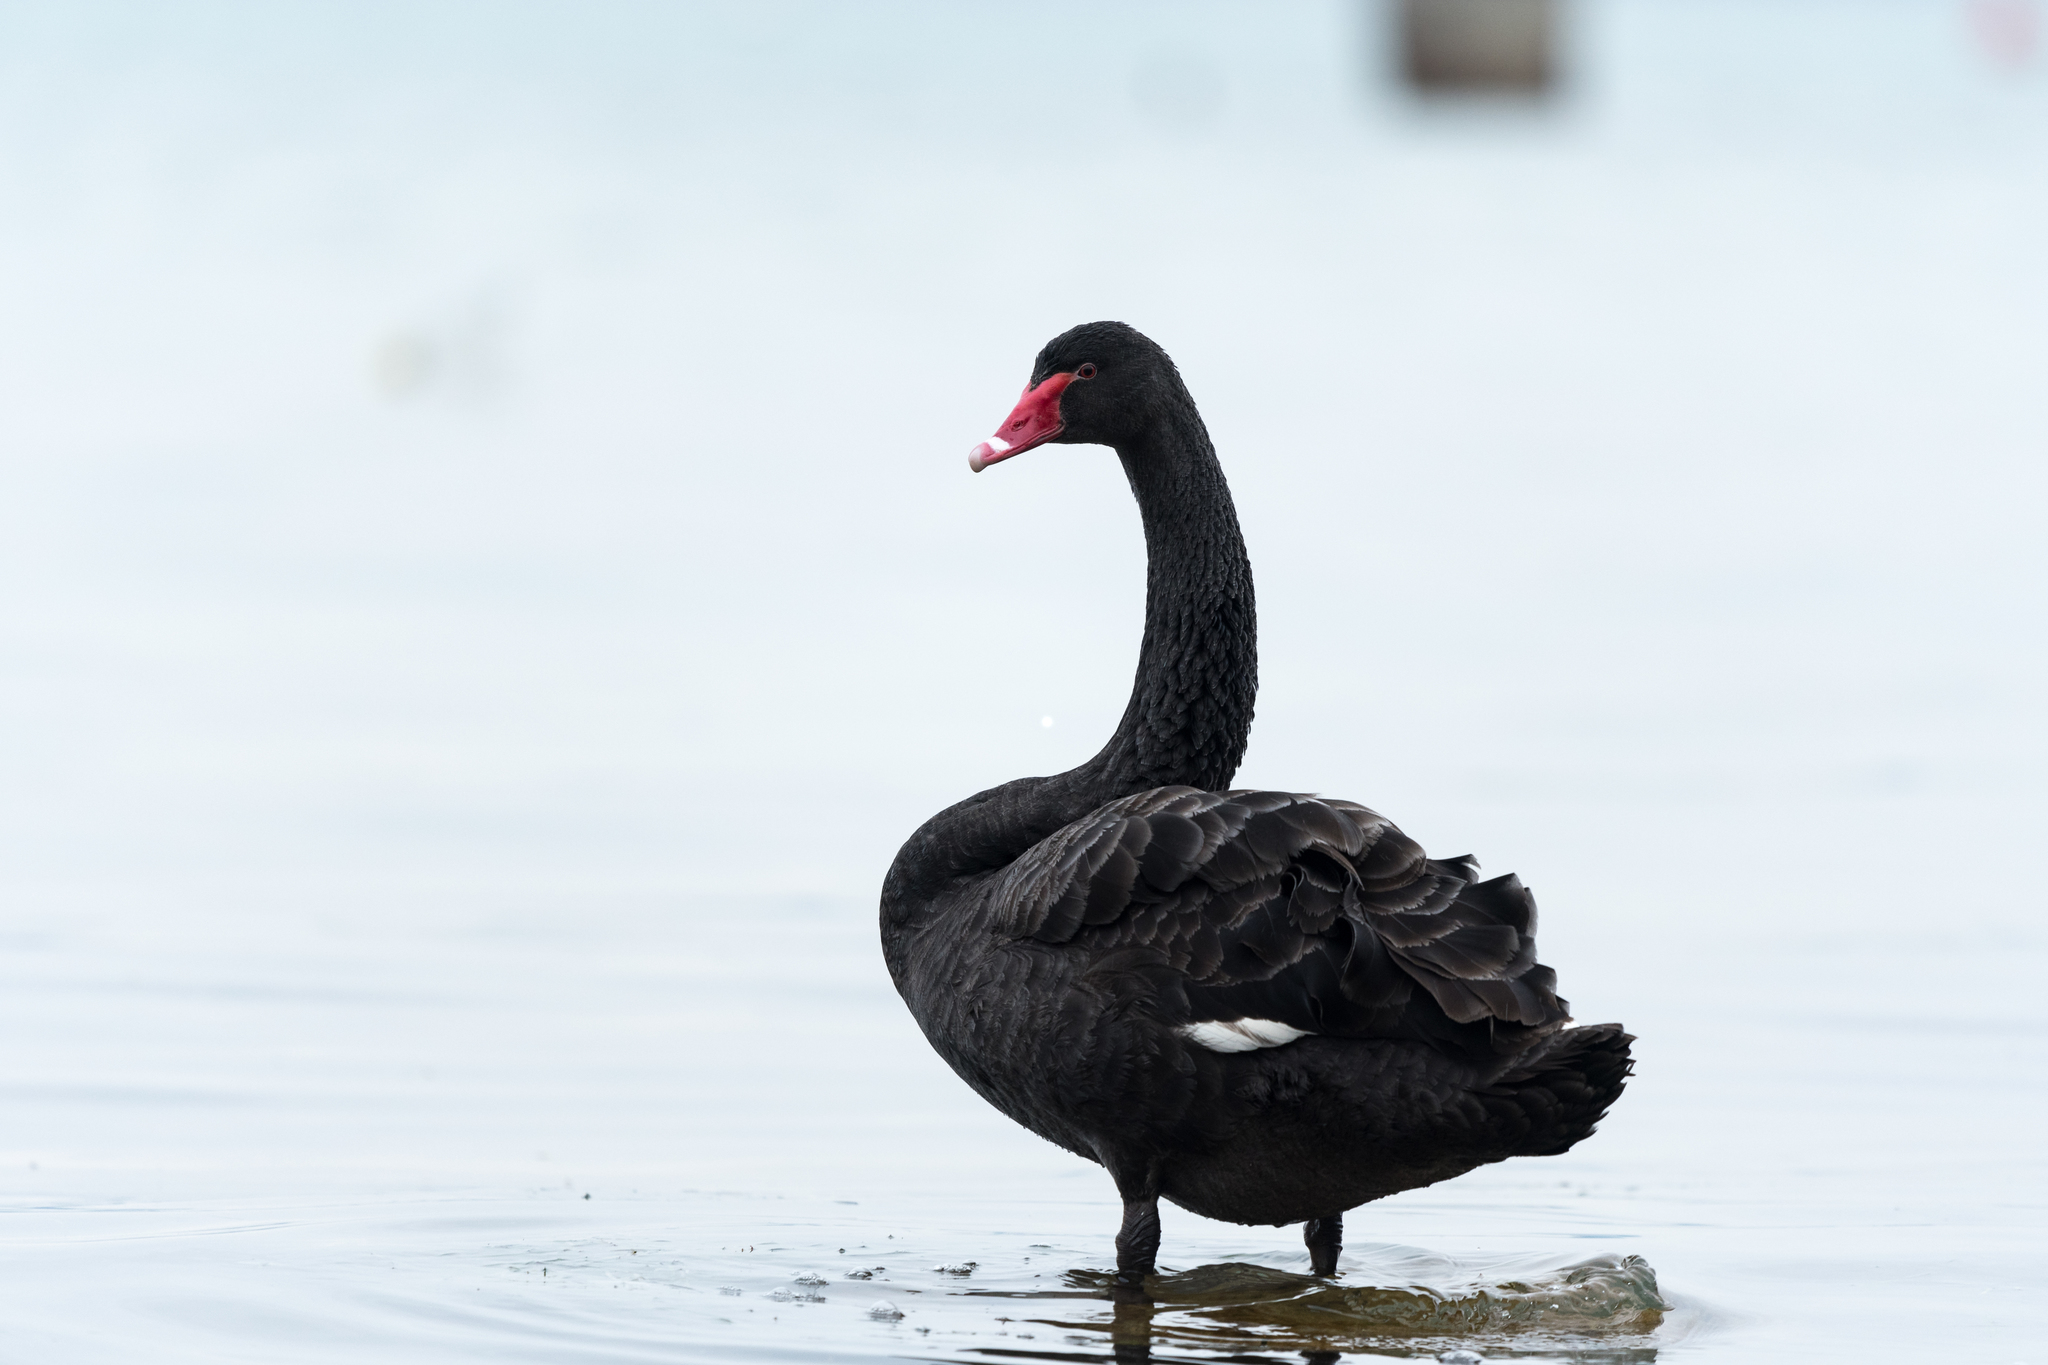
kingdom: Animalia
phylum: Chordata
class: Aves
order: Anseriformes
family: Anatidae
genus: Cygnus
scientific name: Cygnus atratus
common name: Black swan
